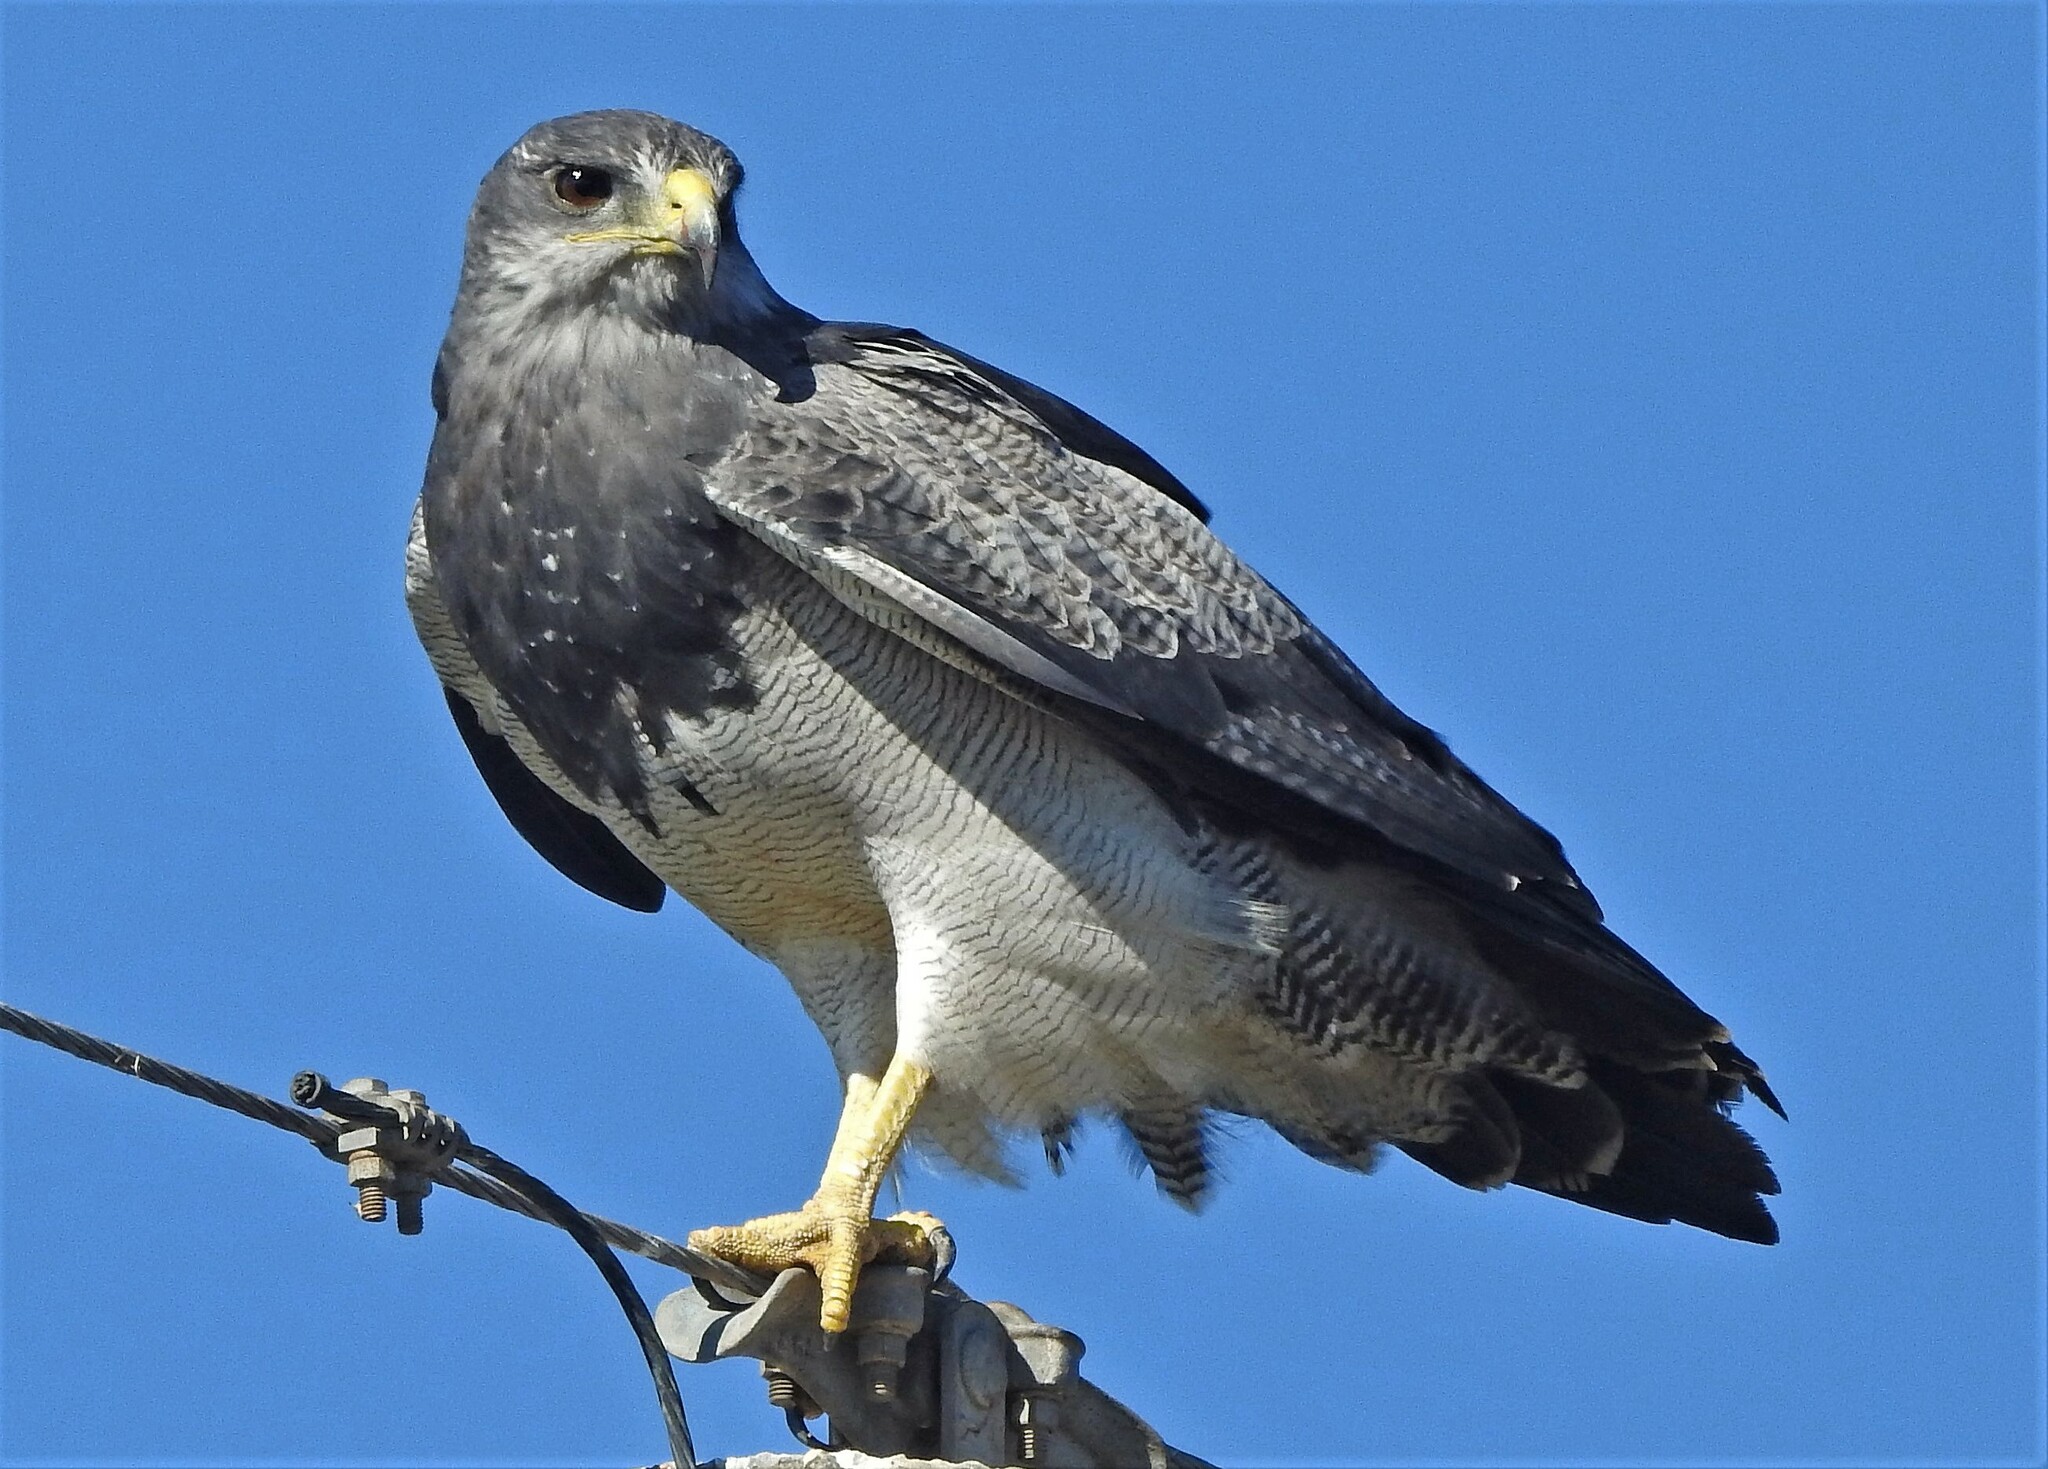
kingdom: Animalia
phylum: Chordata
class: Aves
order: Accipitriformes
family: Accipitridae
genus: Geranoaetus
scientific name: Geranoaetus melanoleucus
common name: Black-chested buzzard-eagle
